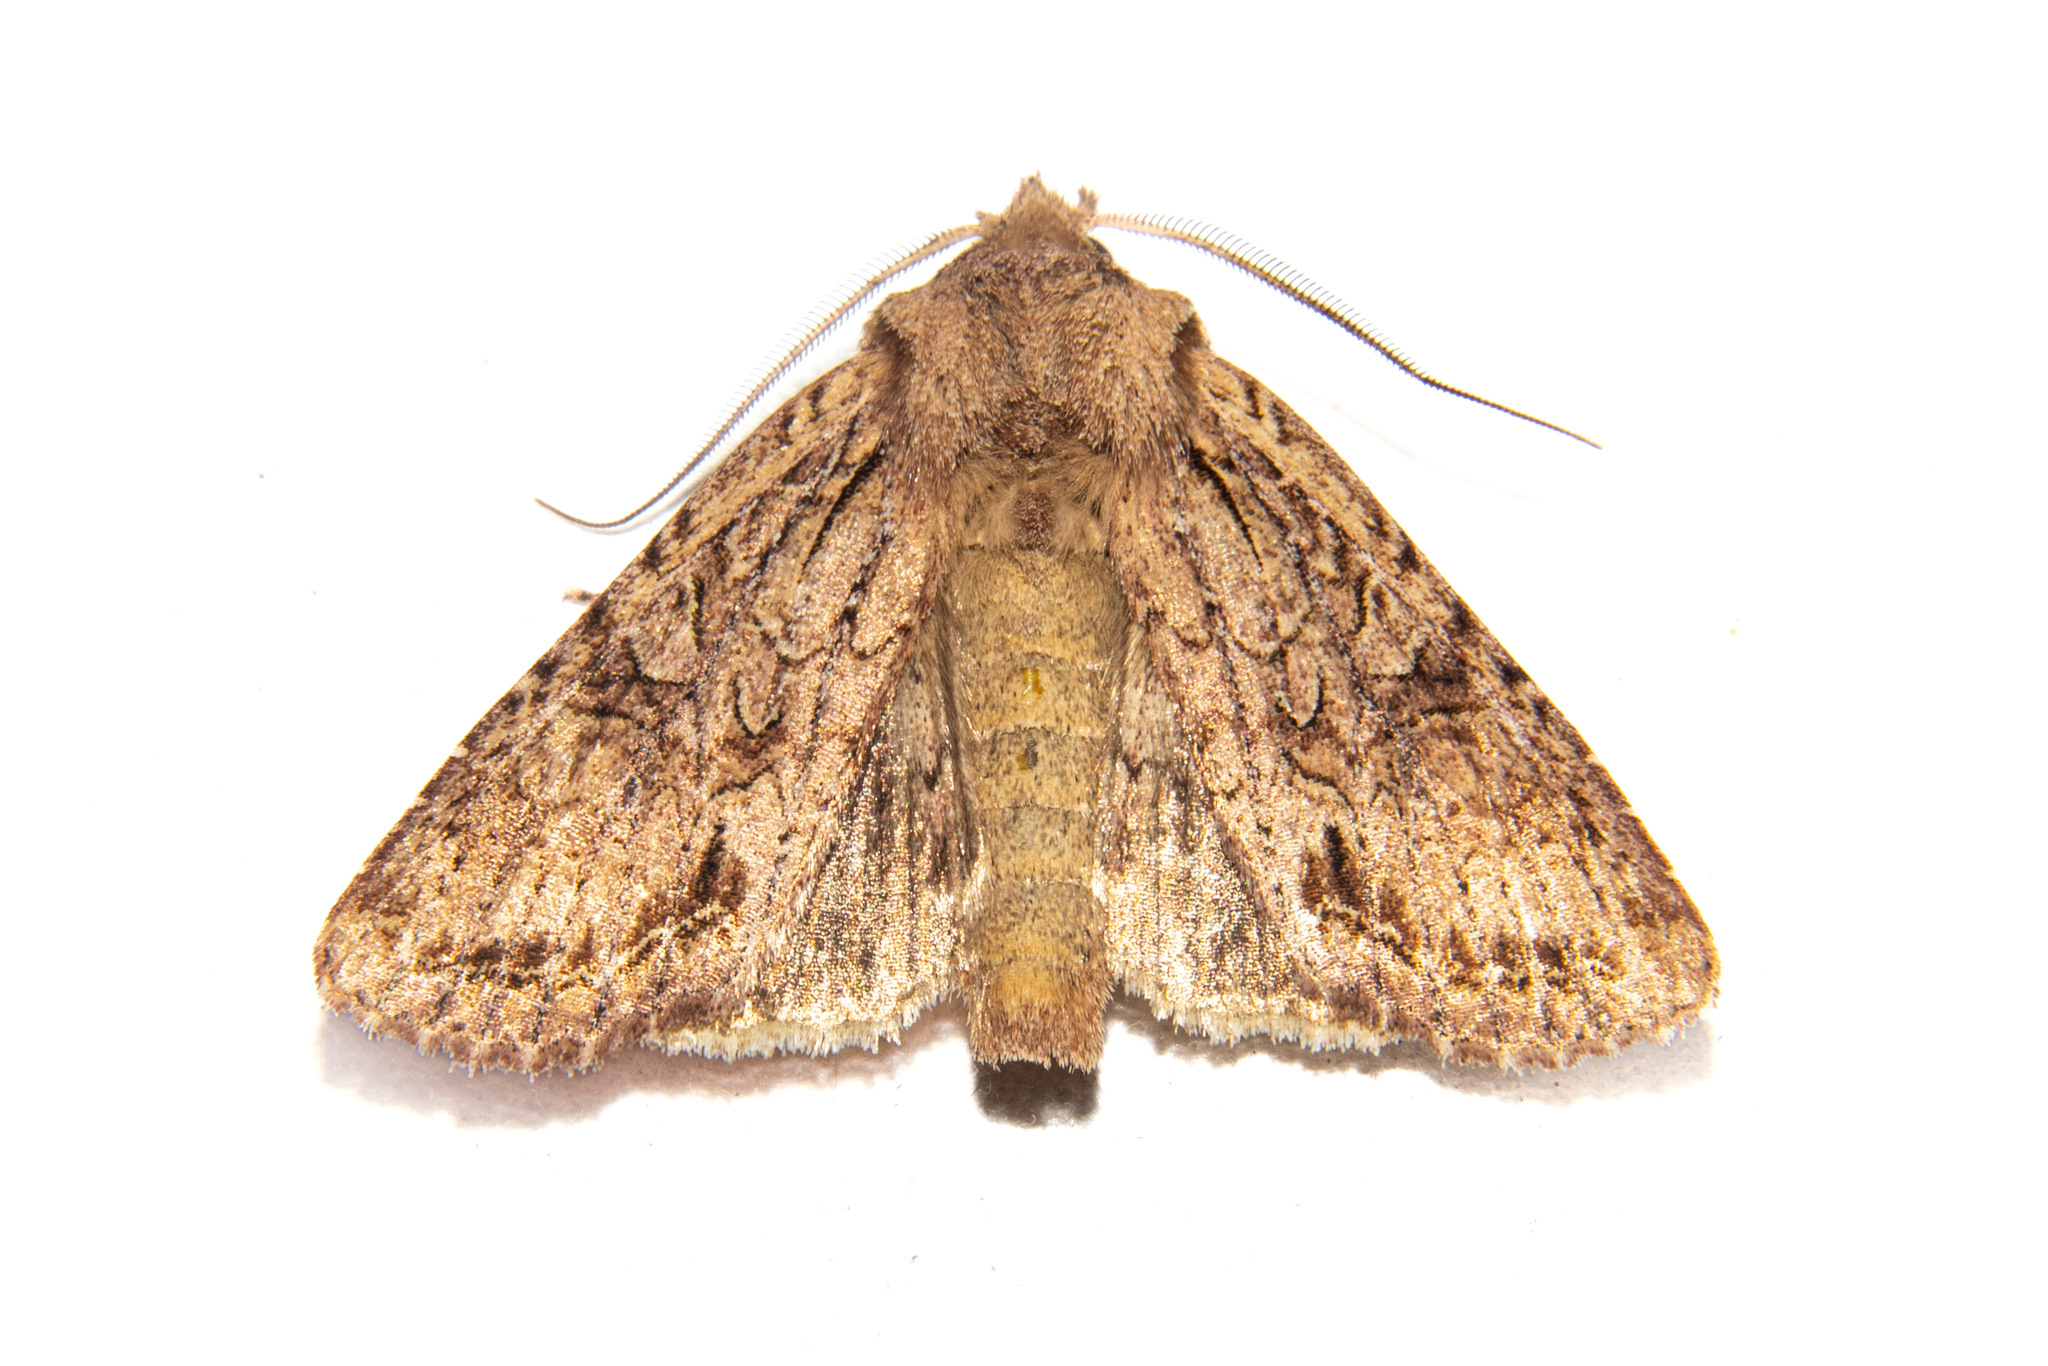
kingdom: Animalia
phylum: Arthropoda
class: Insecta
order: Lepidoptera
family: Noctuidae
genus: Ichneutica
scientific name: Ichneutica
